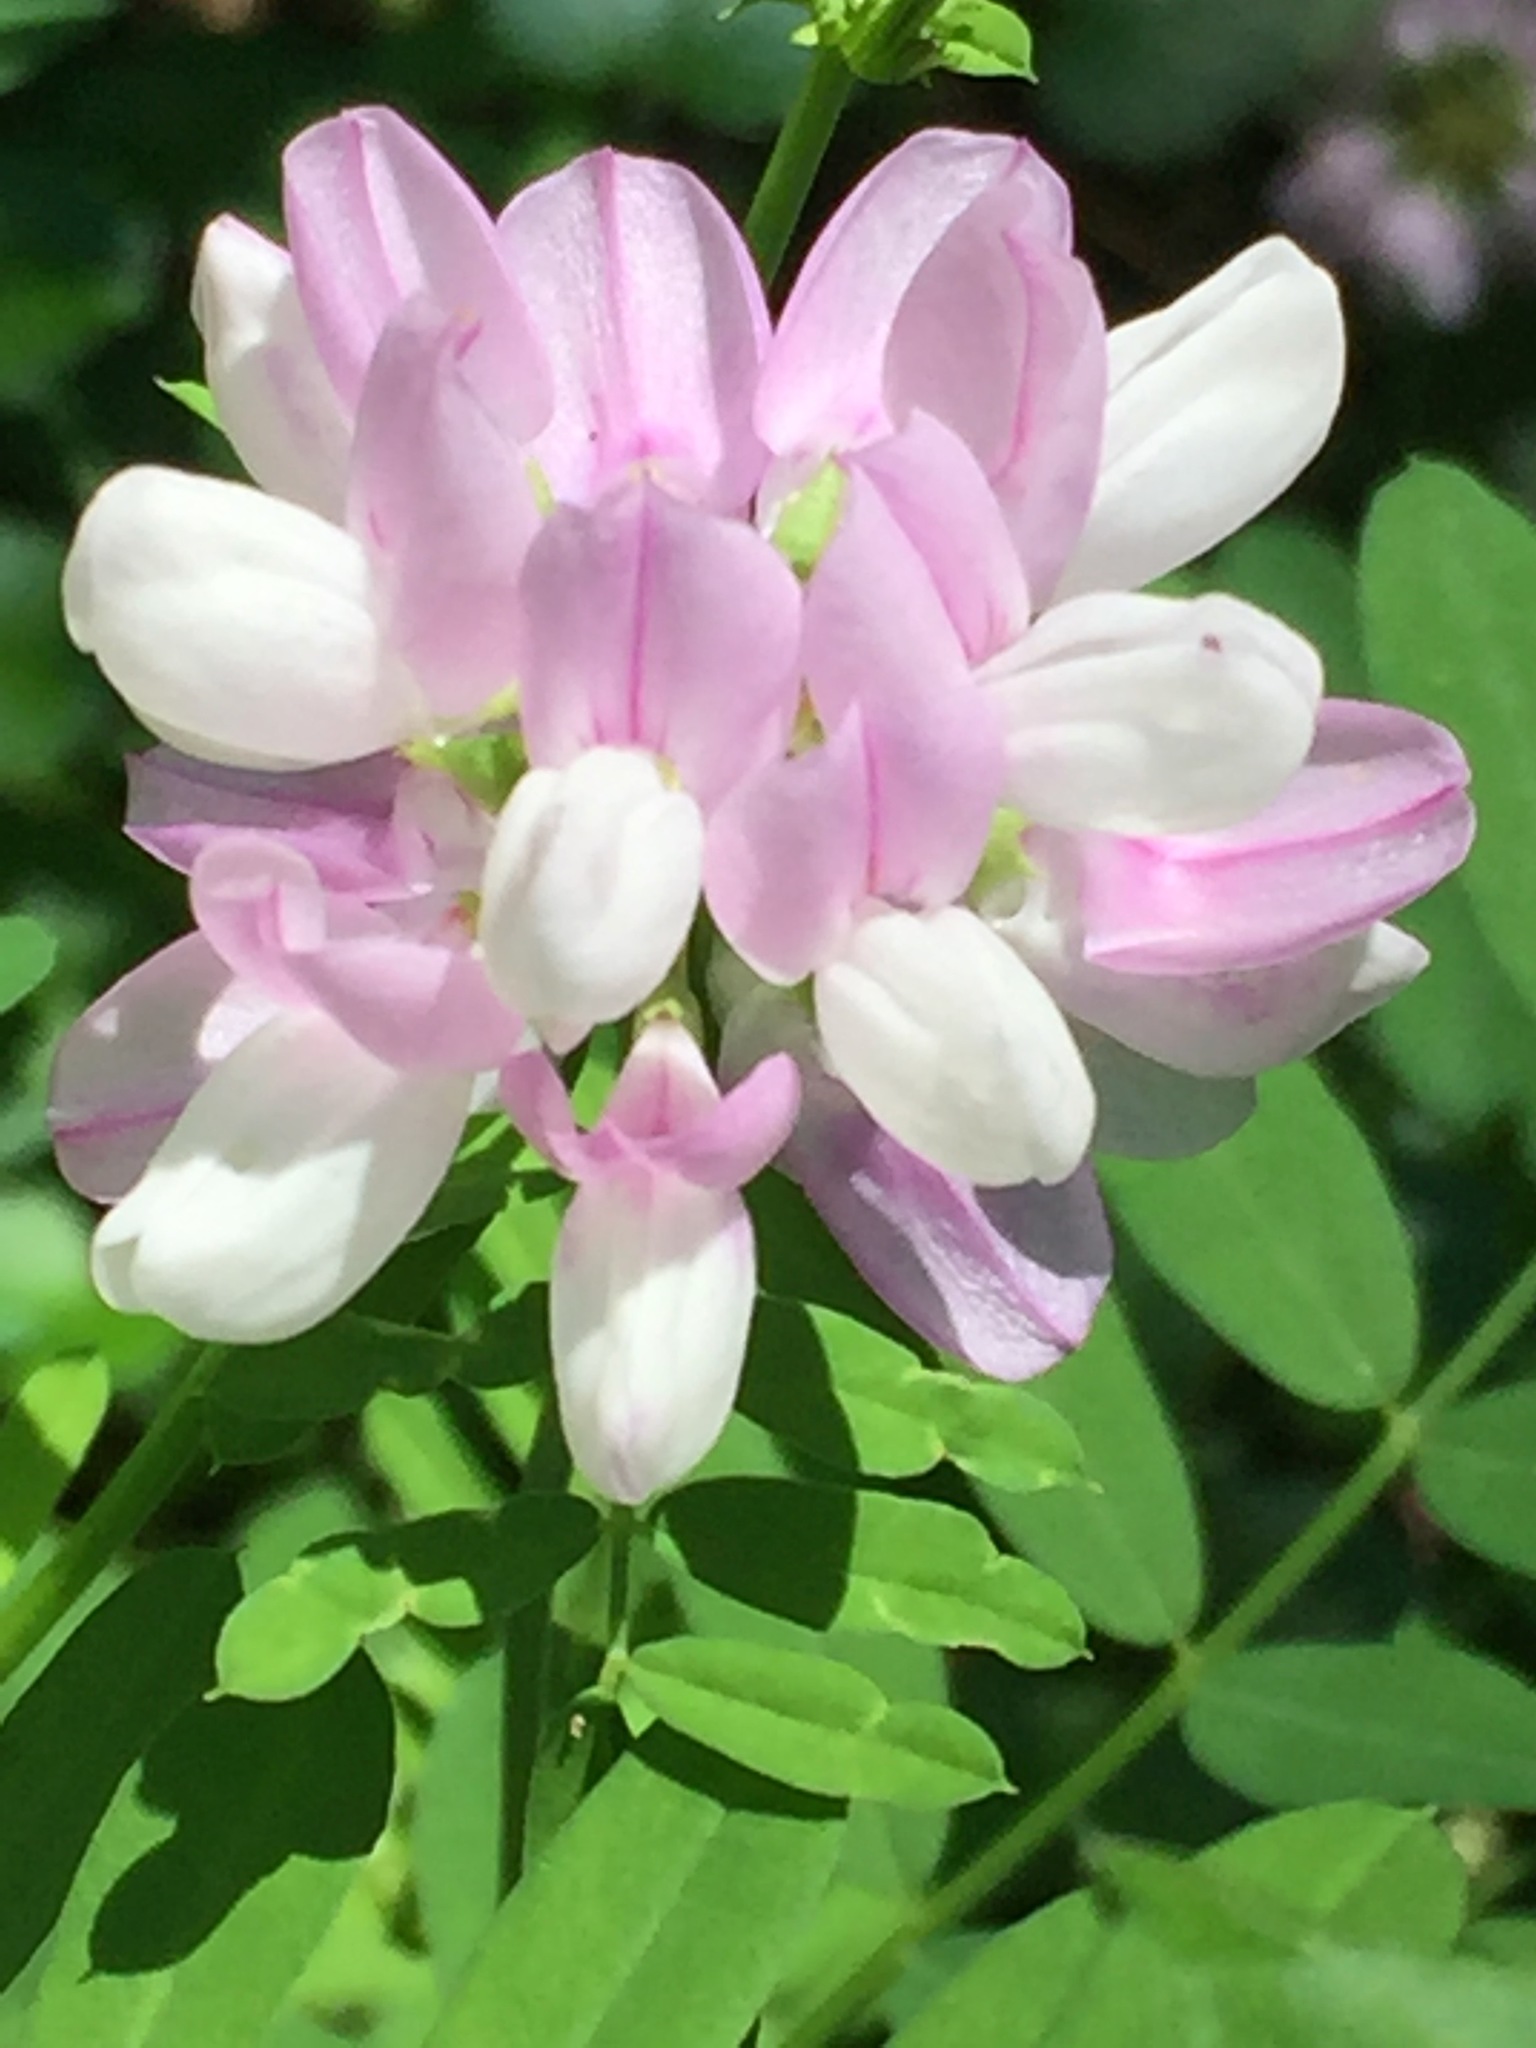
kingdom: Plantae
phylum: Tracheophyta
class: Magnoliopsida
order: Fabales
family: Fabaceae
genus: Coronilla
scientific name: Coronilla varia
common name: Crownvetch
